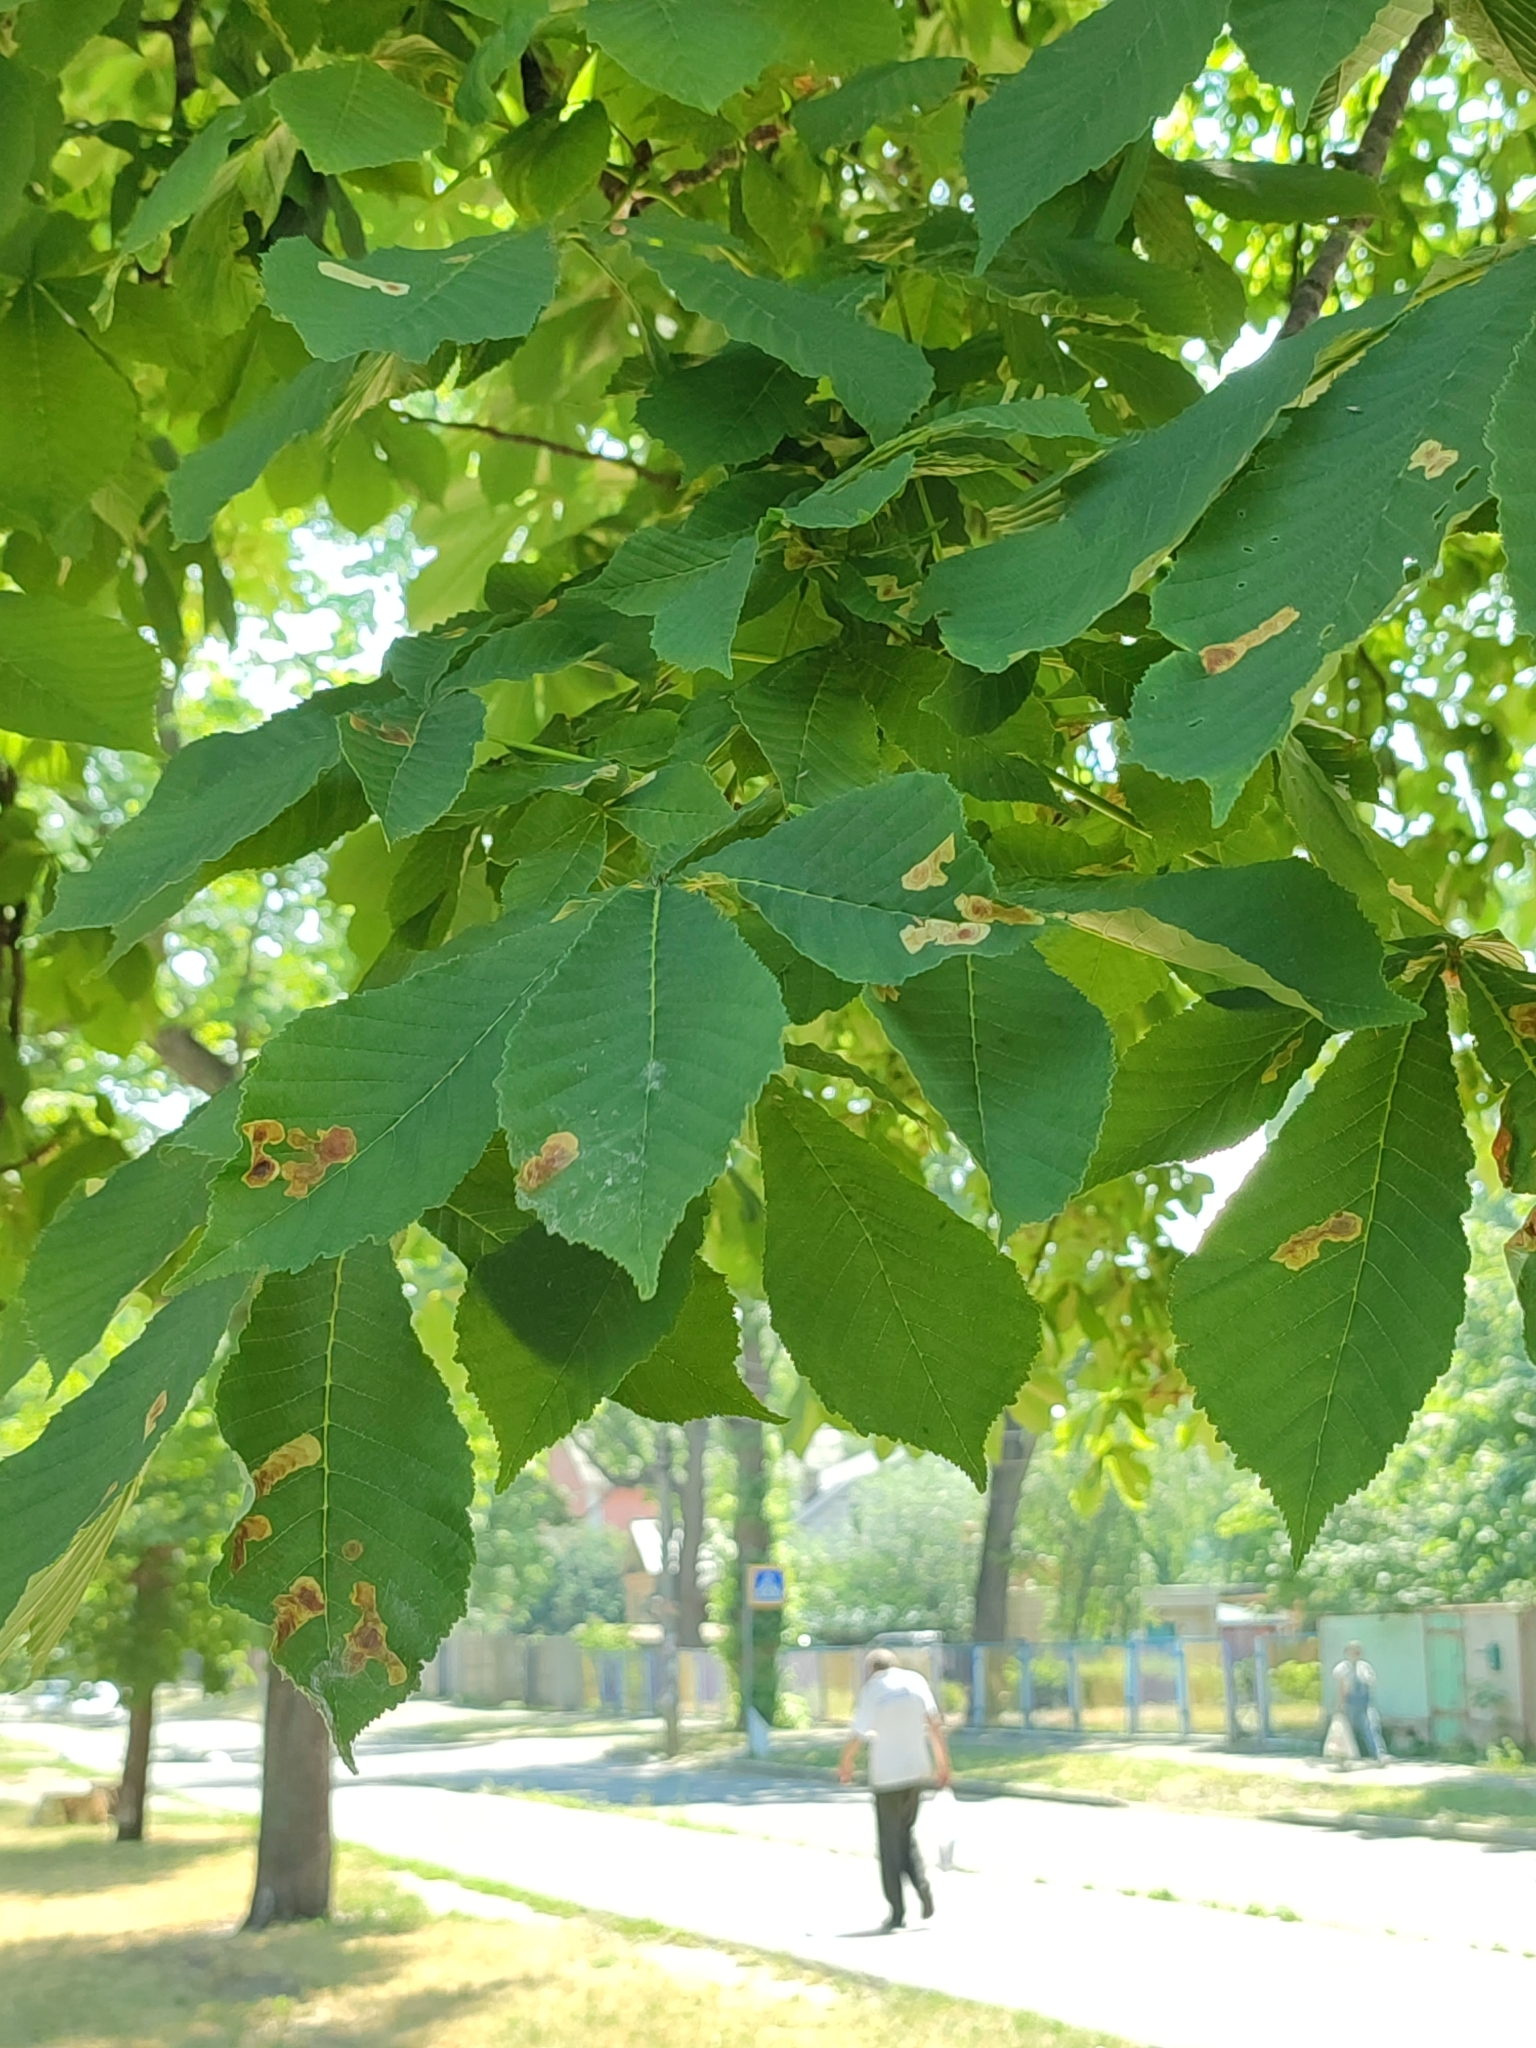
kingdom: Animalia
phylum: Arthropoda
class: Insecta
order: Lepidoptera
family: Gracillariidae
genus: Cameraria
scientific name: Cameraria ohridella
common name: Horse-chestnut leaf-miner
